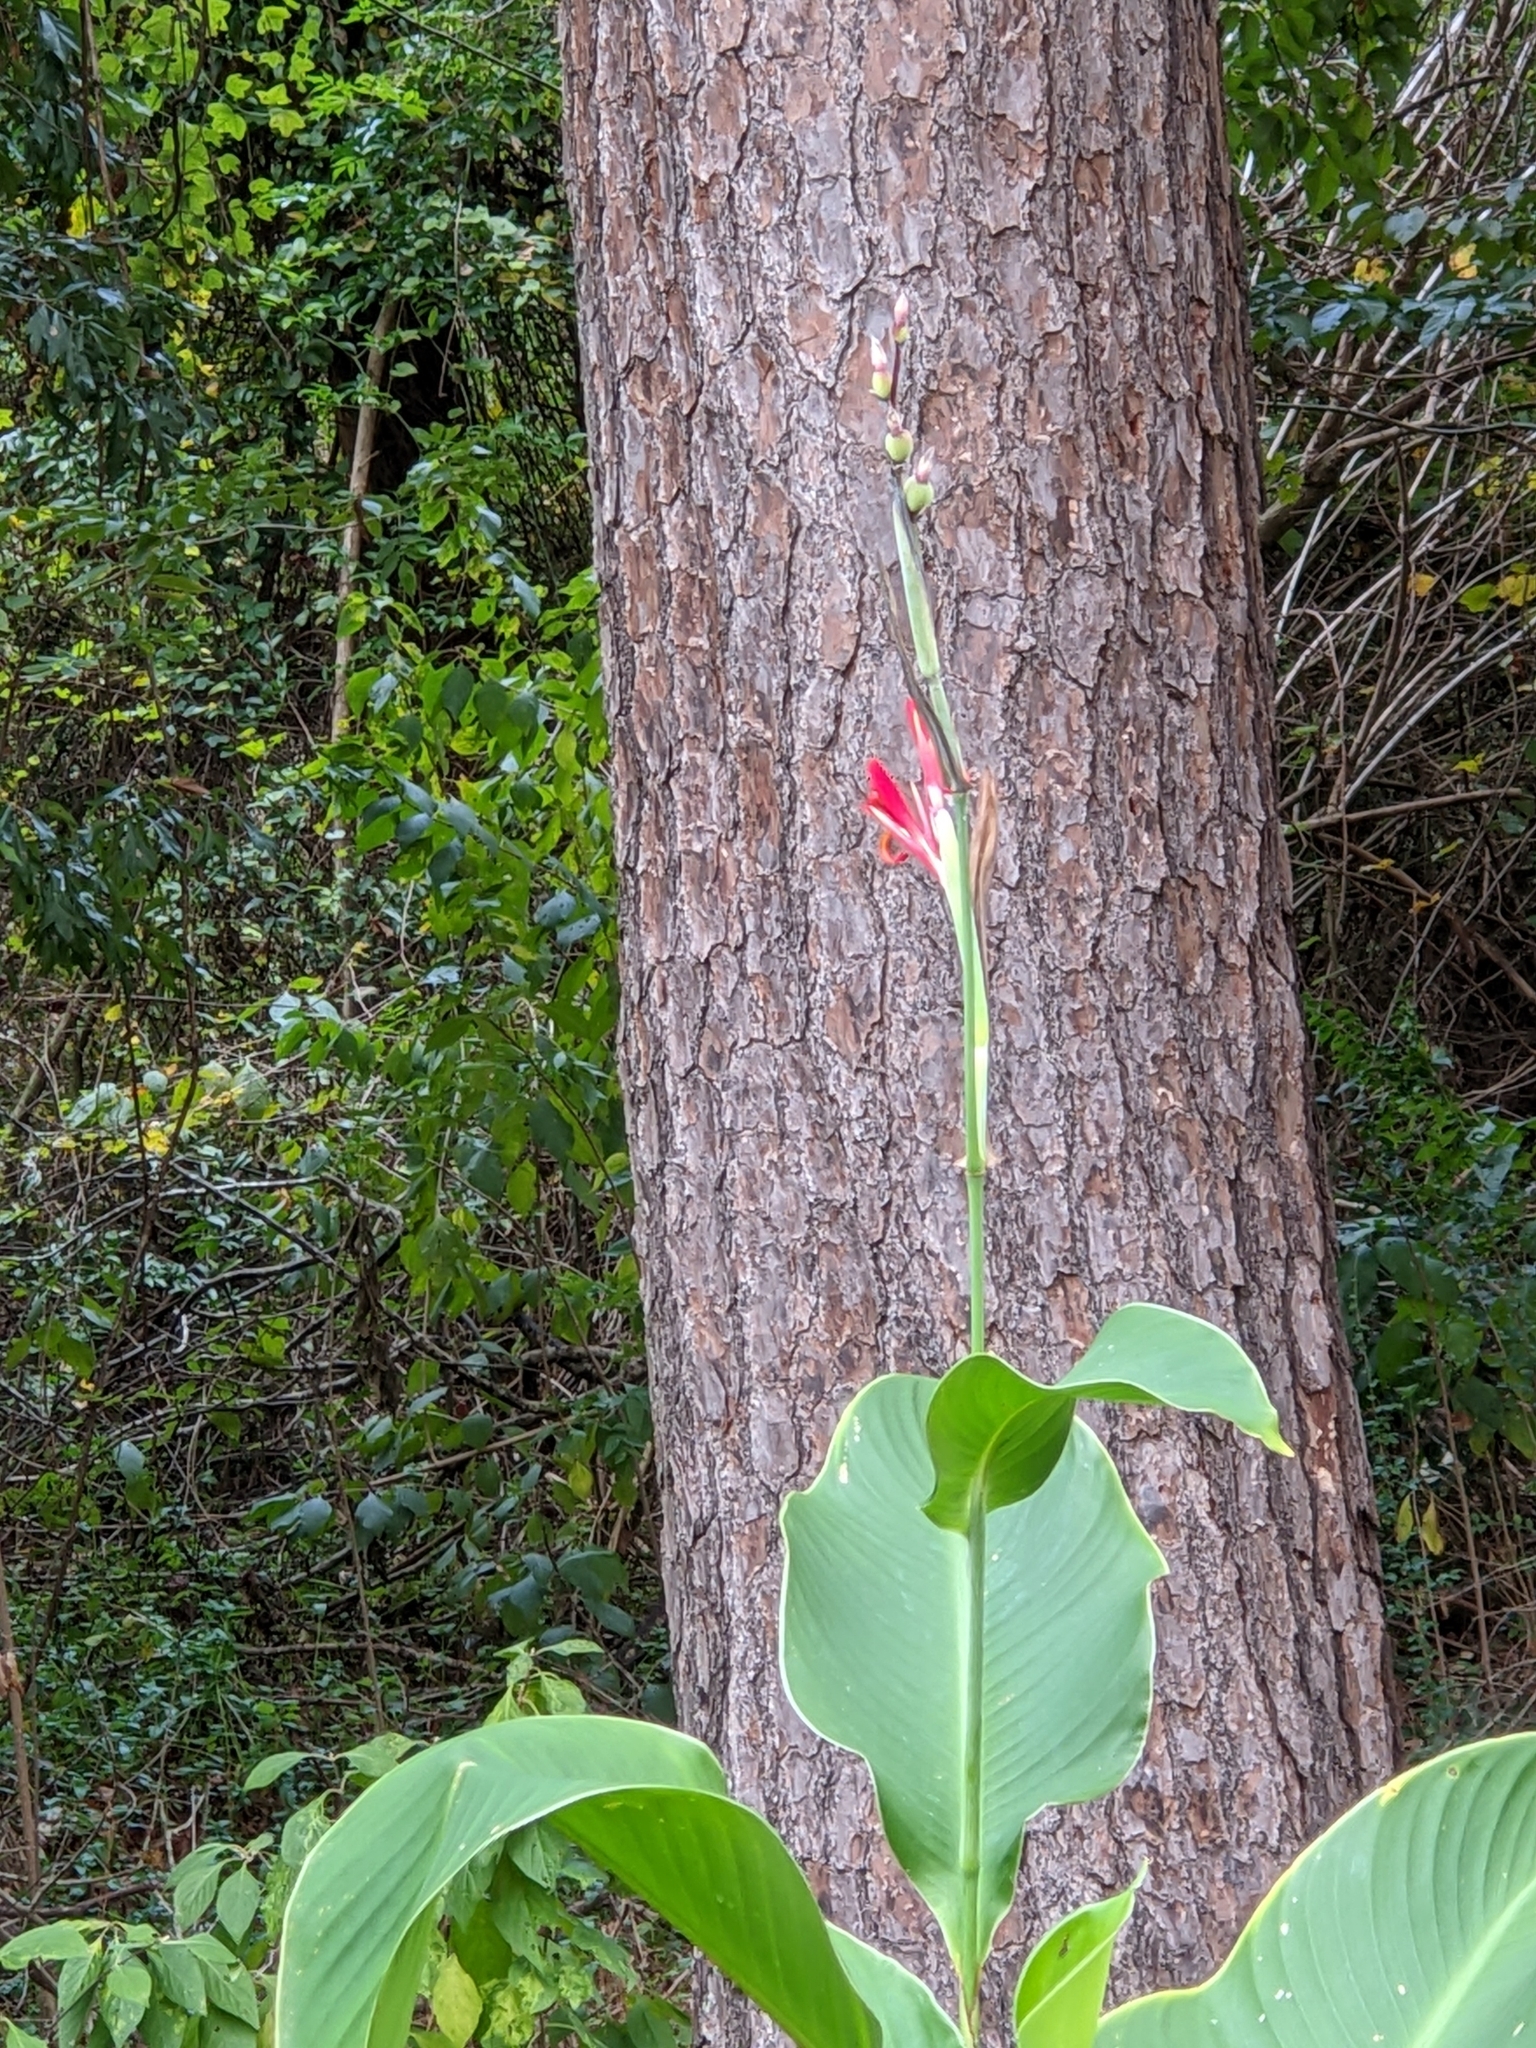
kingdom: Plantae
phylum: Tracheophyta
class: Liliopsida
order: Zingiberales
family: Cannaceae
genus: Canna
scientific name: Canna indica
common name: Indian shot
